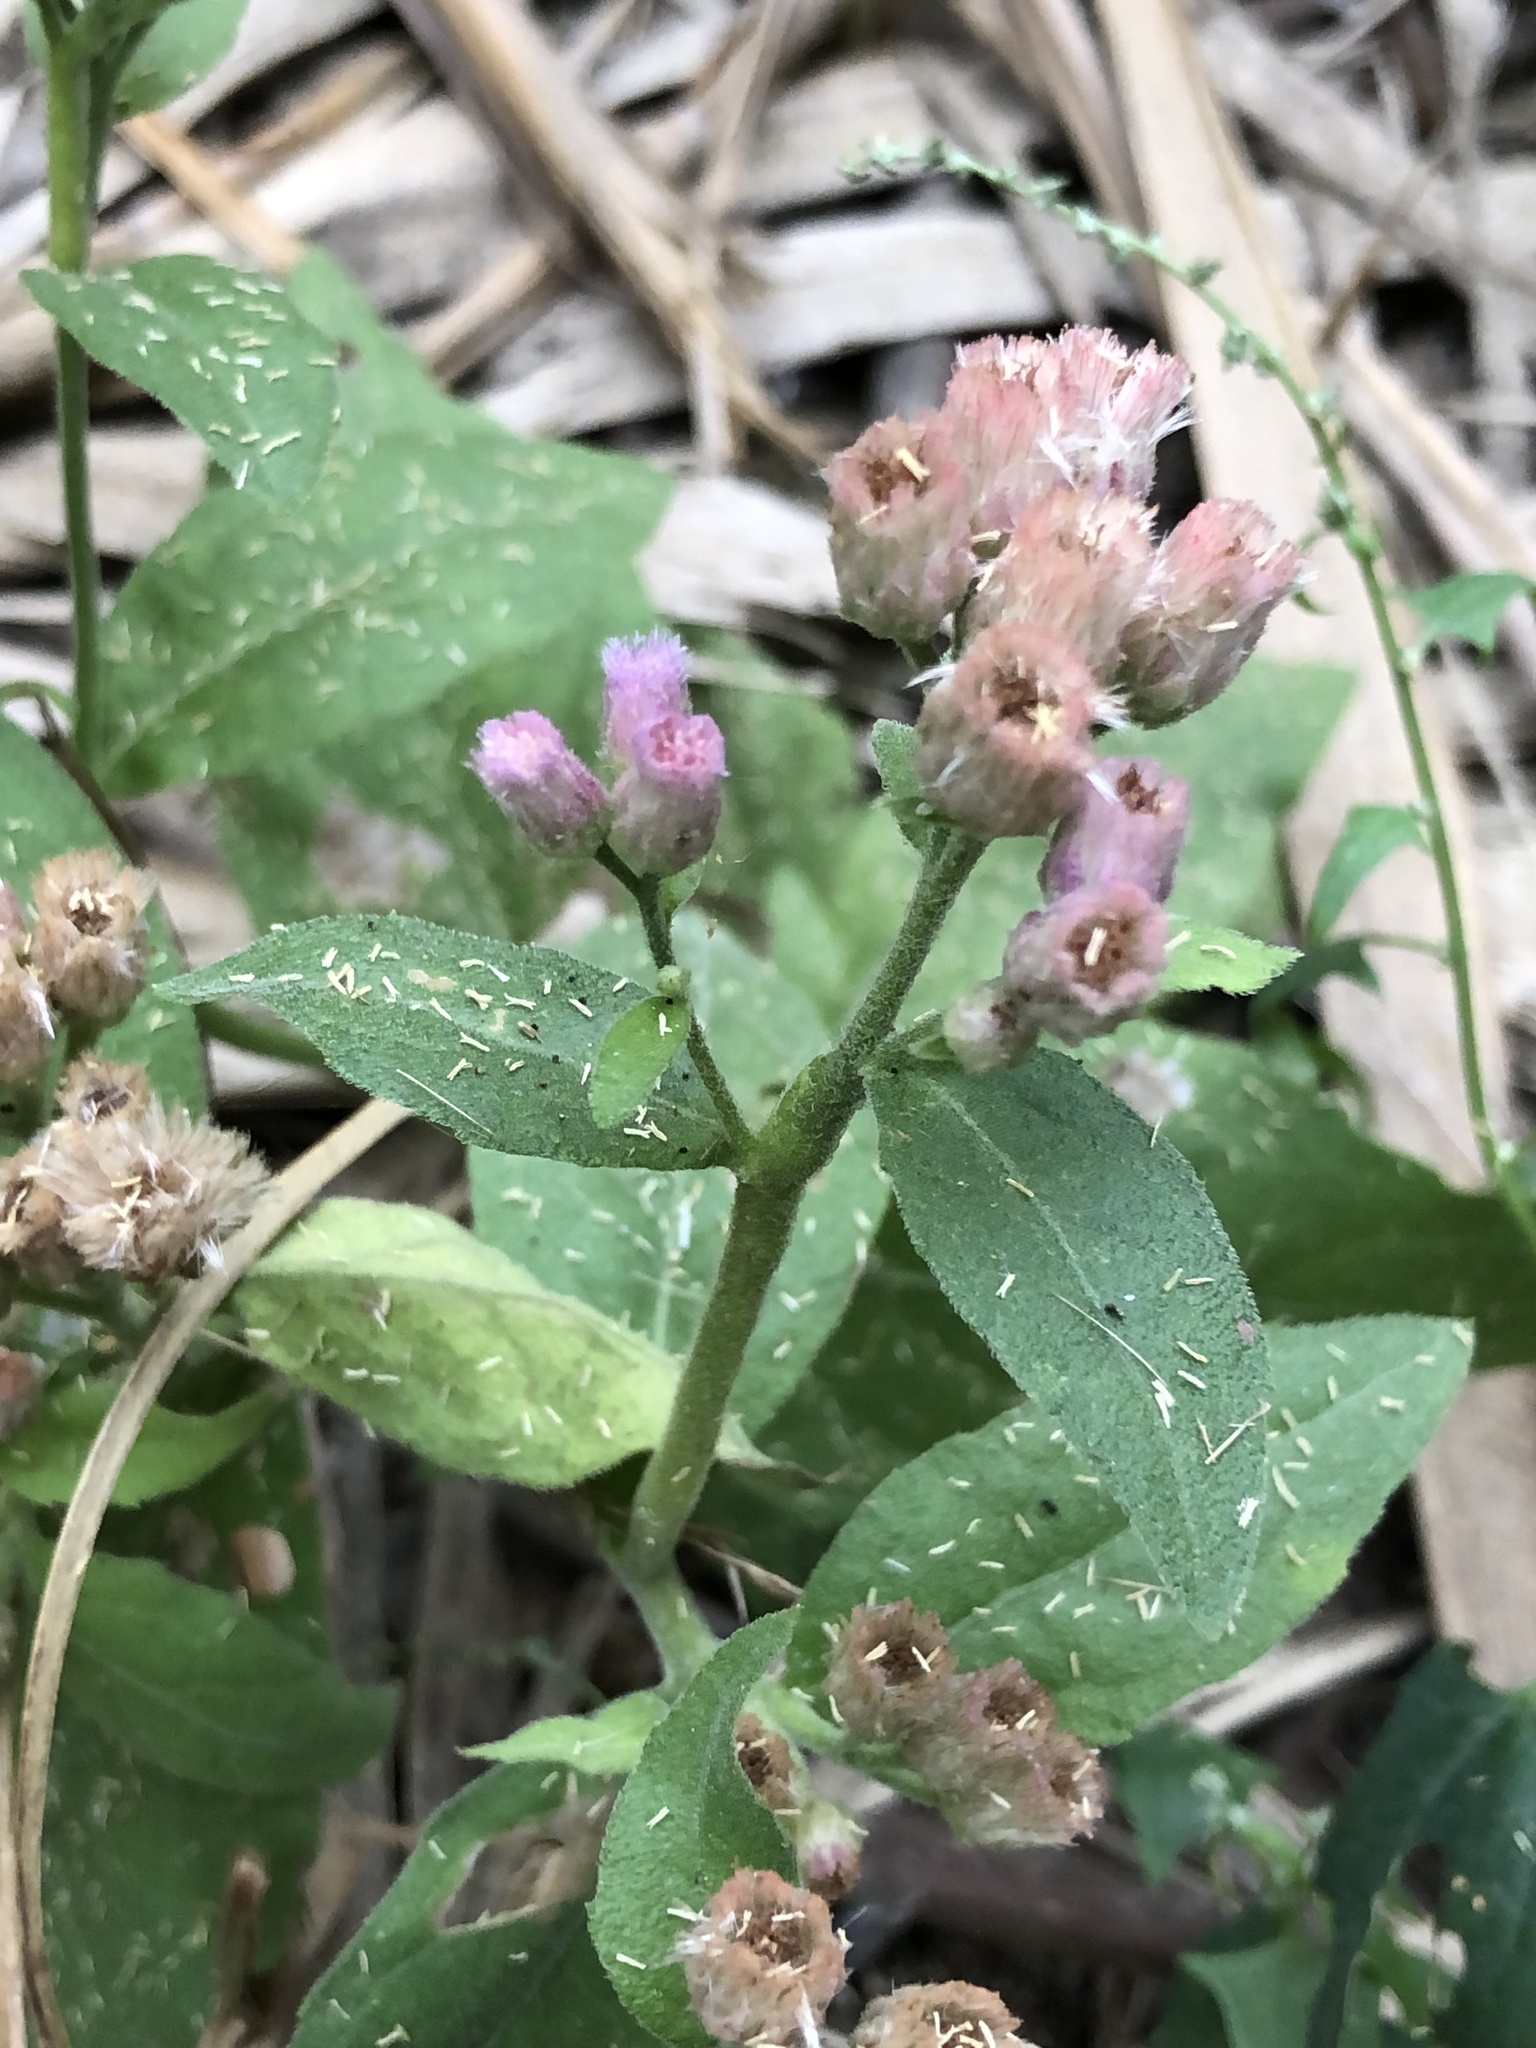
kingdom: Plantae
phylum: Tracheophyta
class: Magnoliopsida
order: Asterales
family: Asteraceae
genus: Pluchea
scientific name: Pluchea odorata
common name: Saltmarsh fleabane
